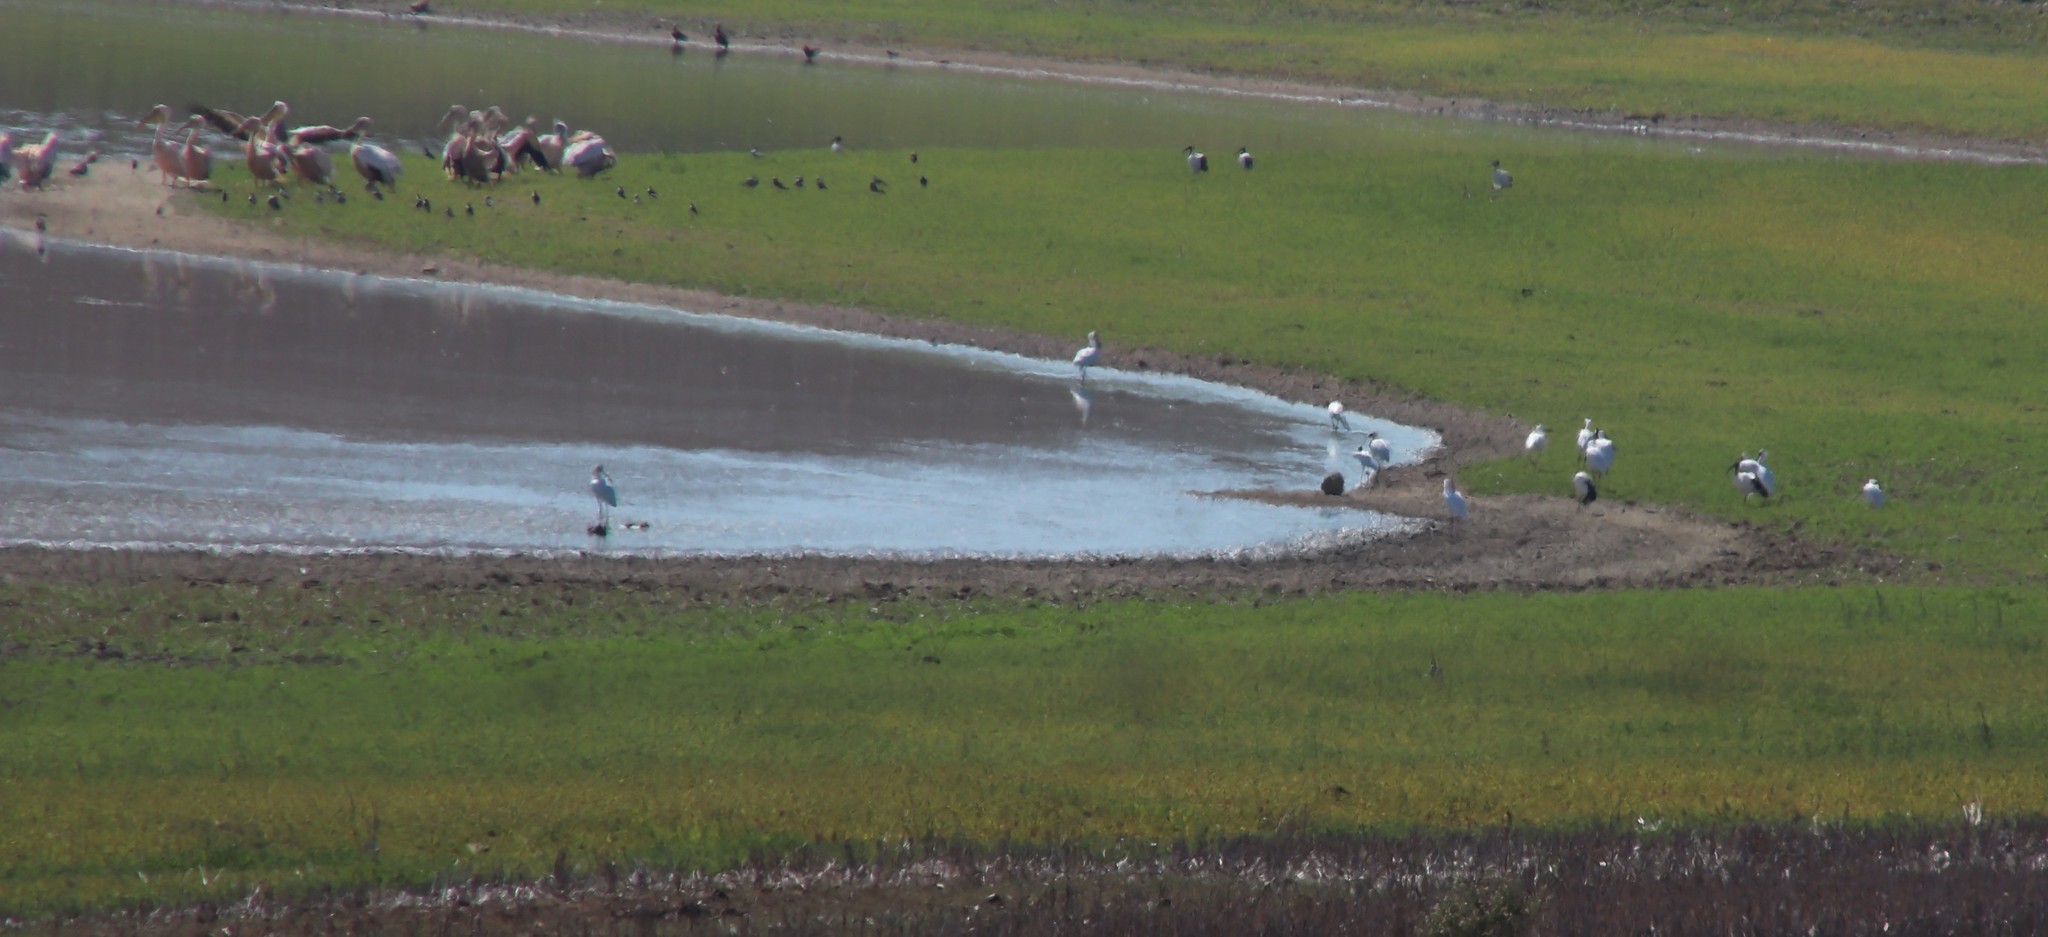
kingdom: Animalia
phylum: Chordata
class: Aves
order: Pelecaniformes
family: Threskiornithidae
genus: Threskiornis
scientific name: Threskiornis aethiopicus
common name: Sacred ibis
